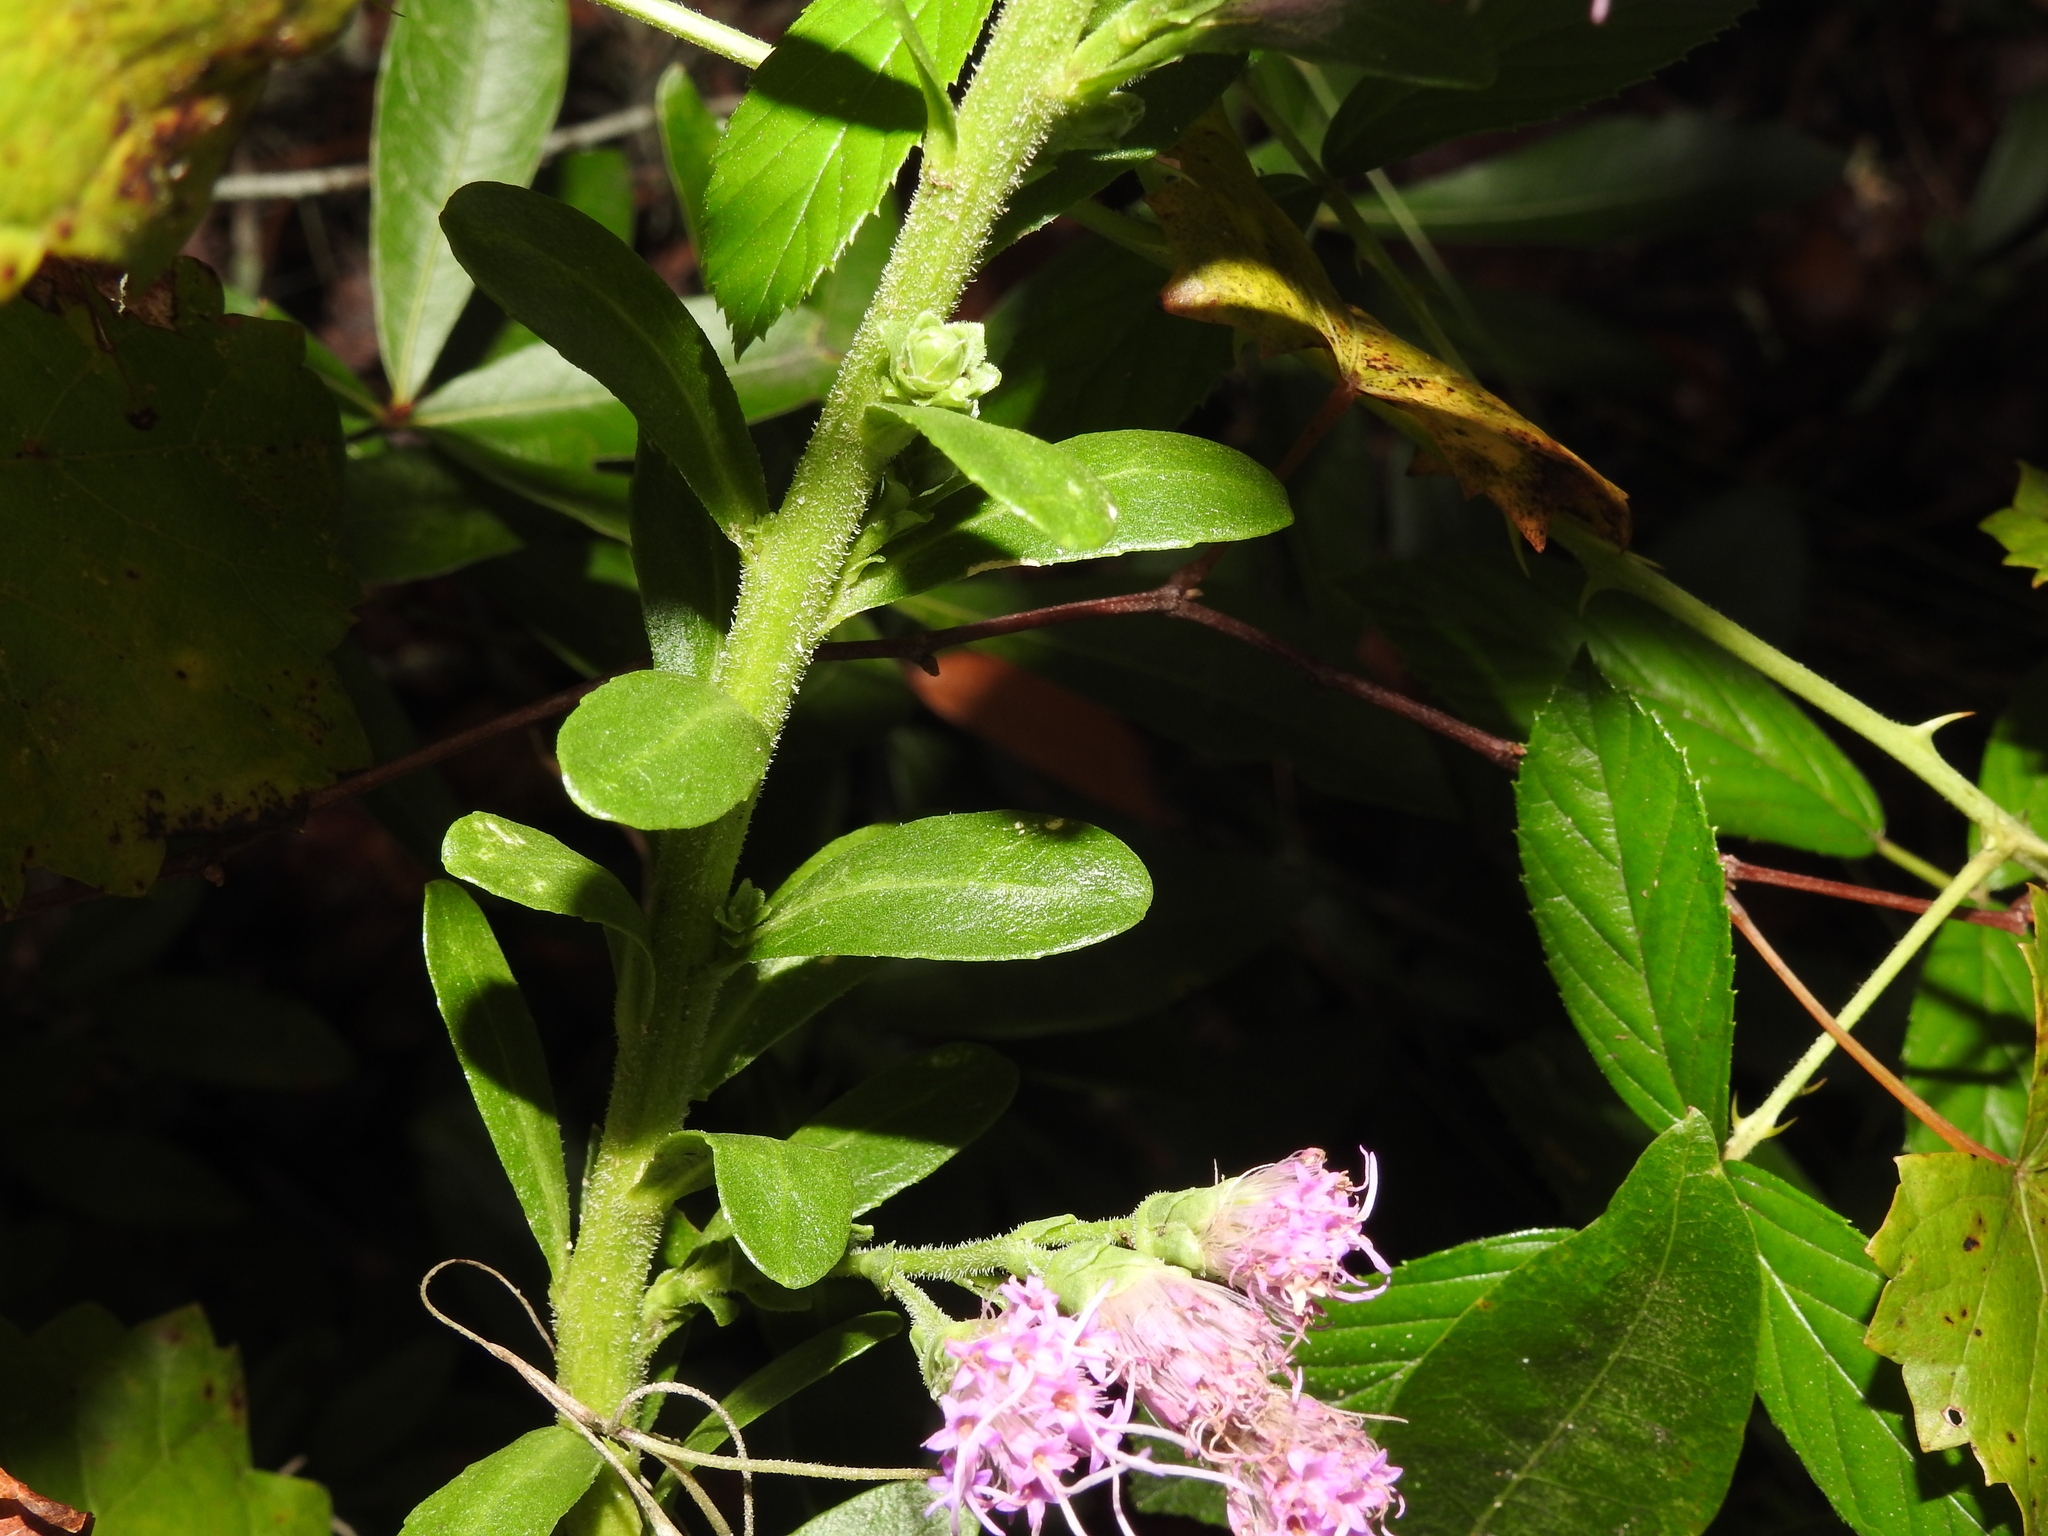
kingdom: Plantae
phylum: Tracheophyta
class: Magnoliopsida
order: Asterales
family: Asteraceae
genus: Carphephorus
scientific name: Carphephorus corymbosus
